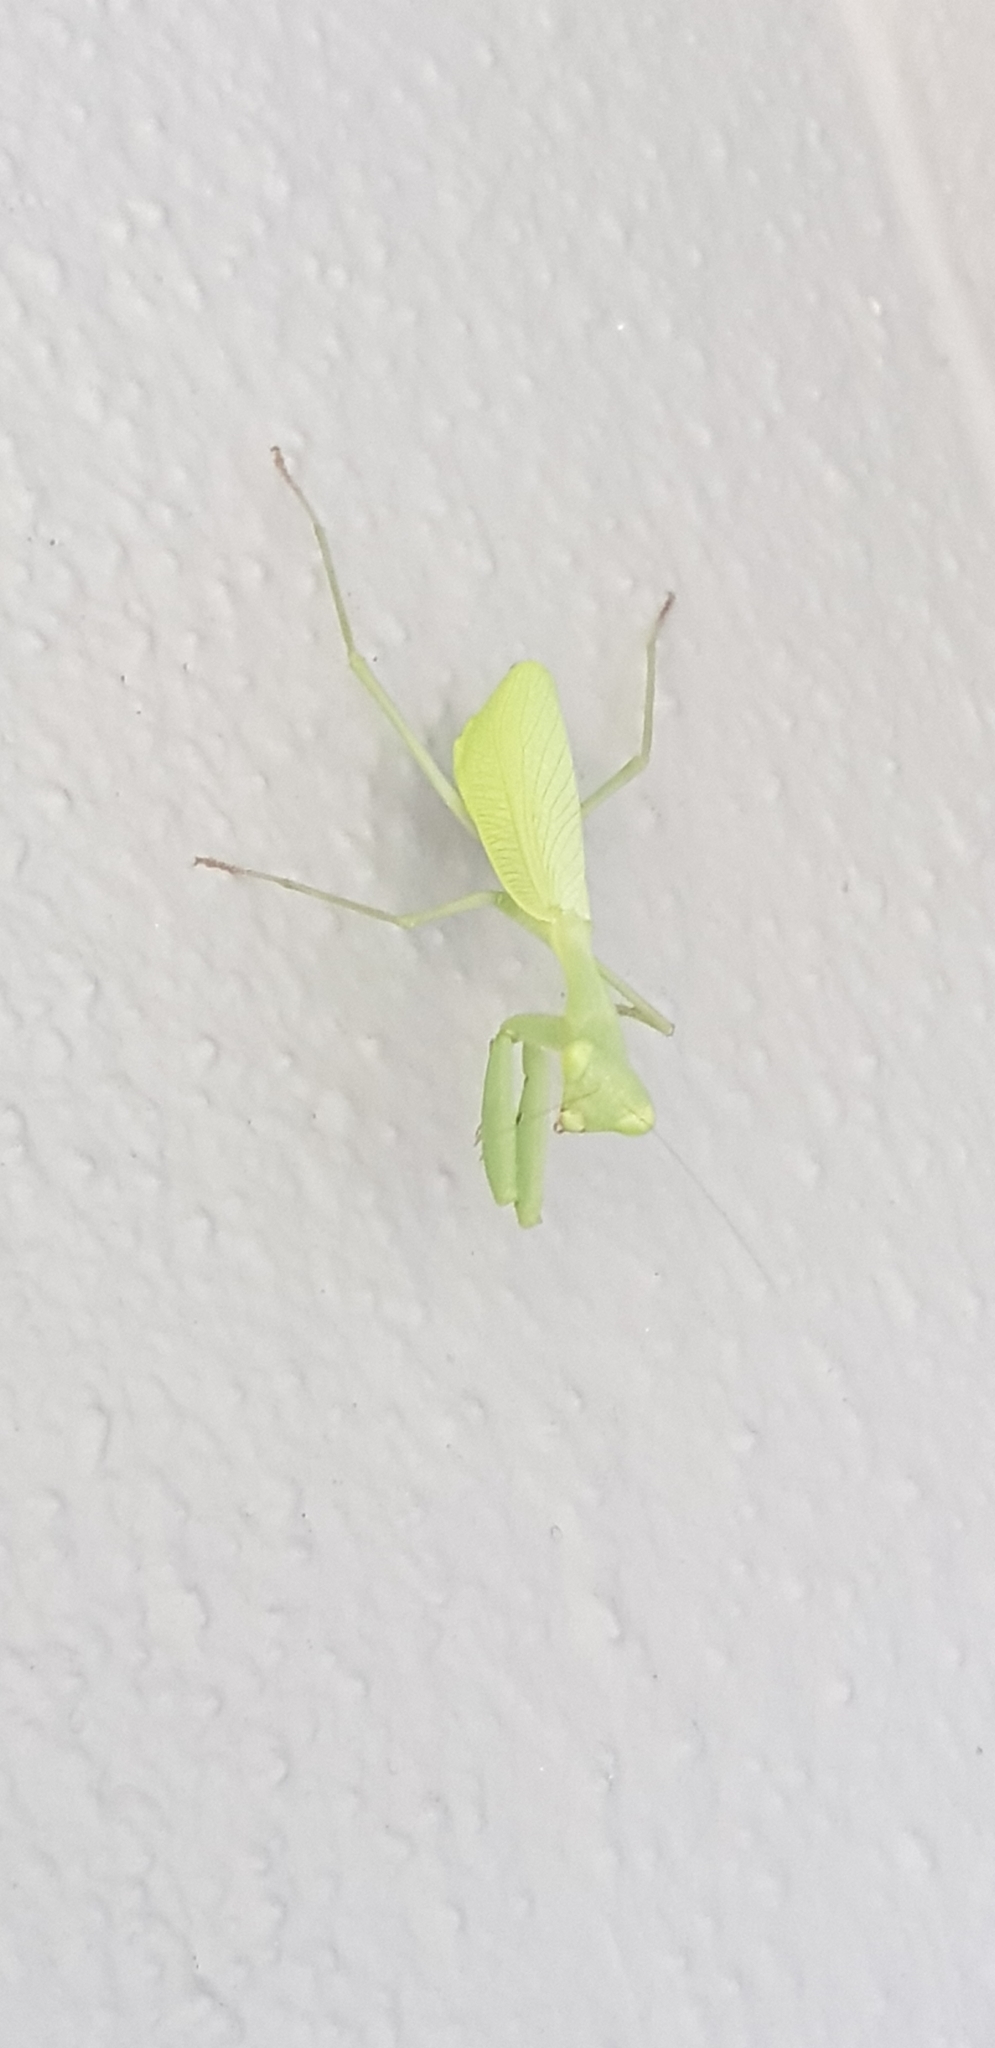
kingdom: Animalia
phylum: Arthropoda
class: Insecta
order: Mantodea
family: Miomantidae
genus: Miomantis
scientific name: Miomantis caffra
